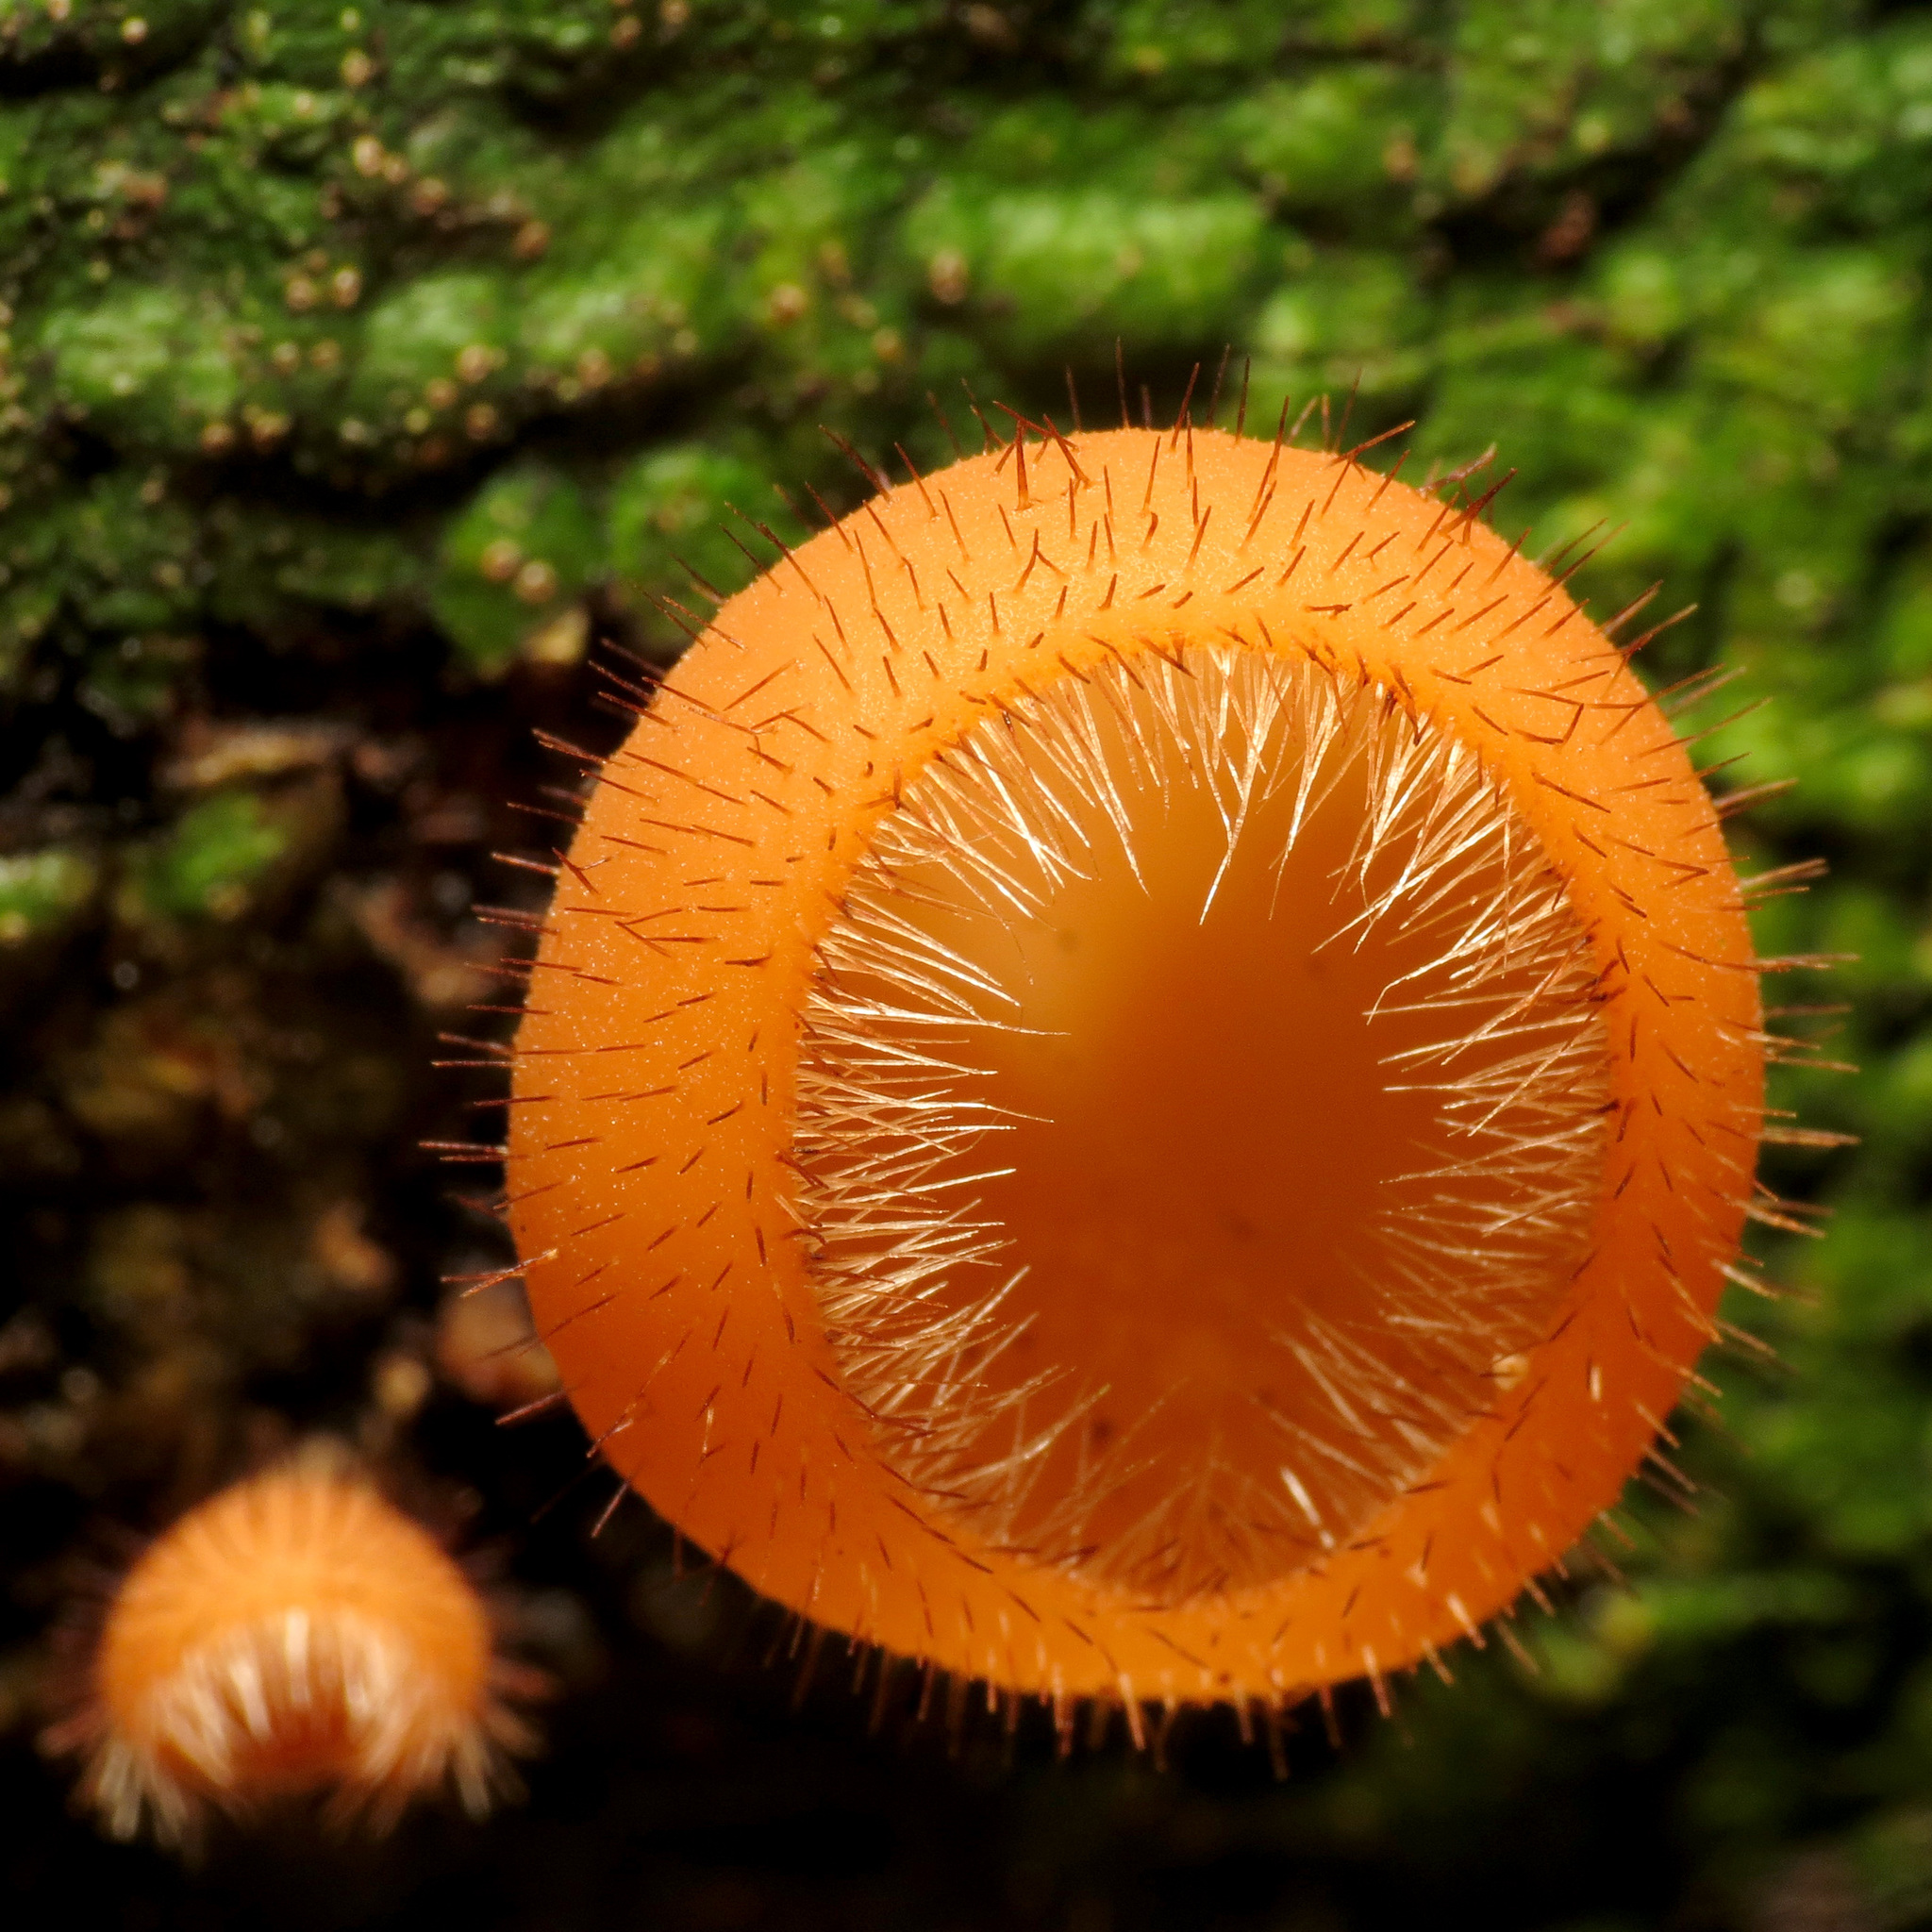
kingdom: Fungi
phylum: Ascomycota
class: Pezizomycetes
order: Pezizales
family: Sarcoscyphaceae
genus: Cookeina
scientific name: Cookeina tricholoma
